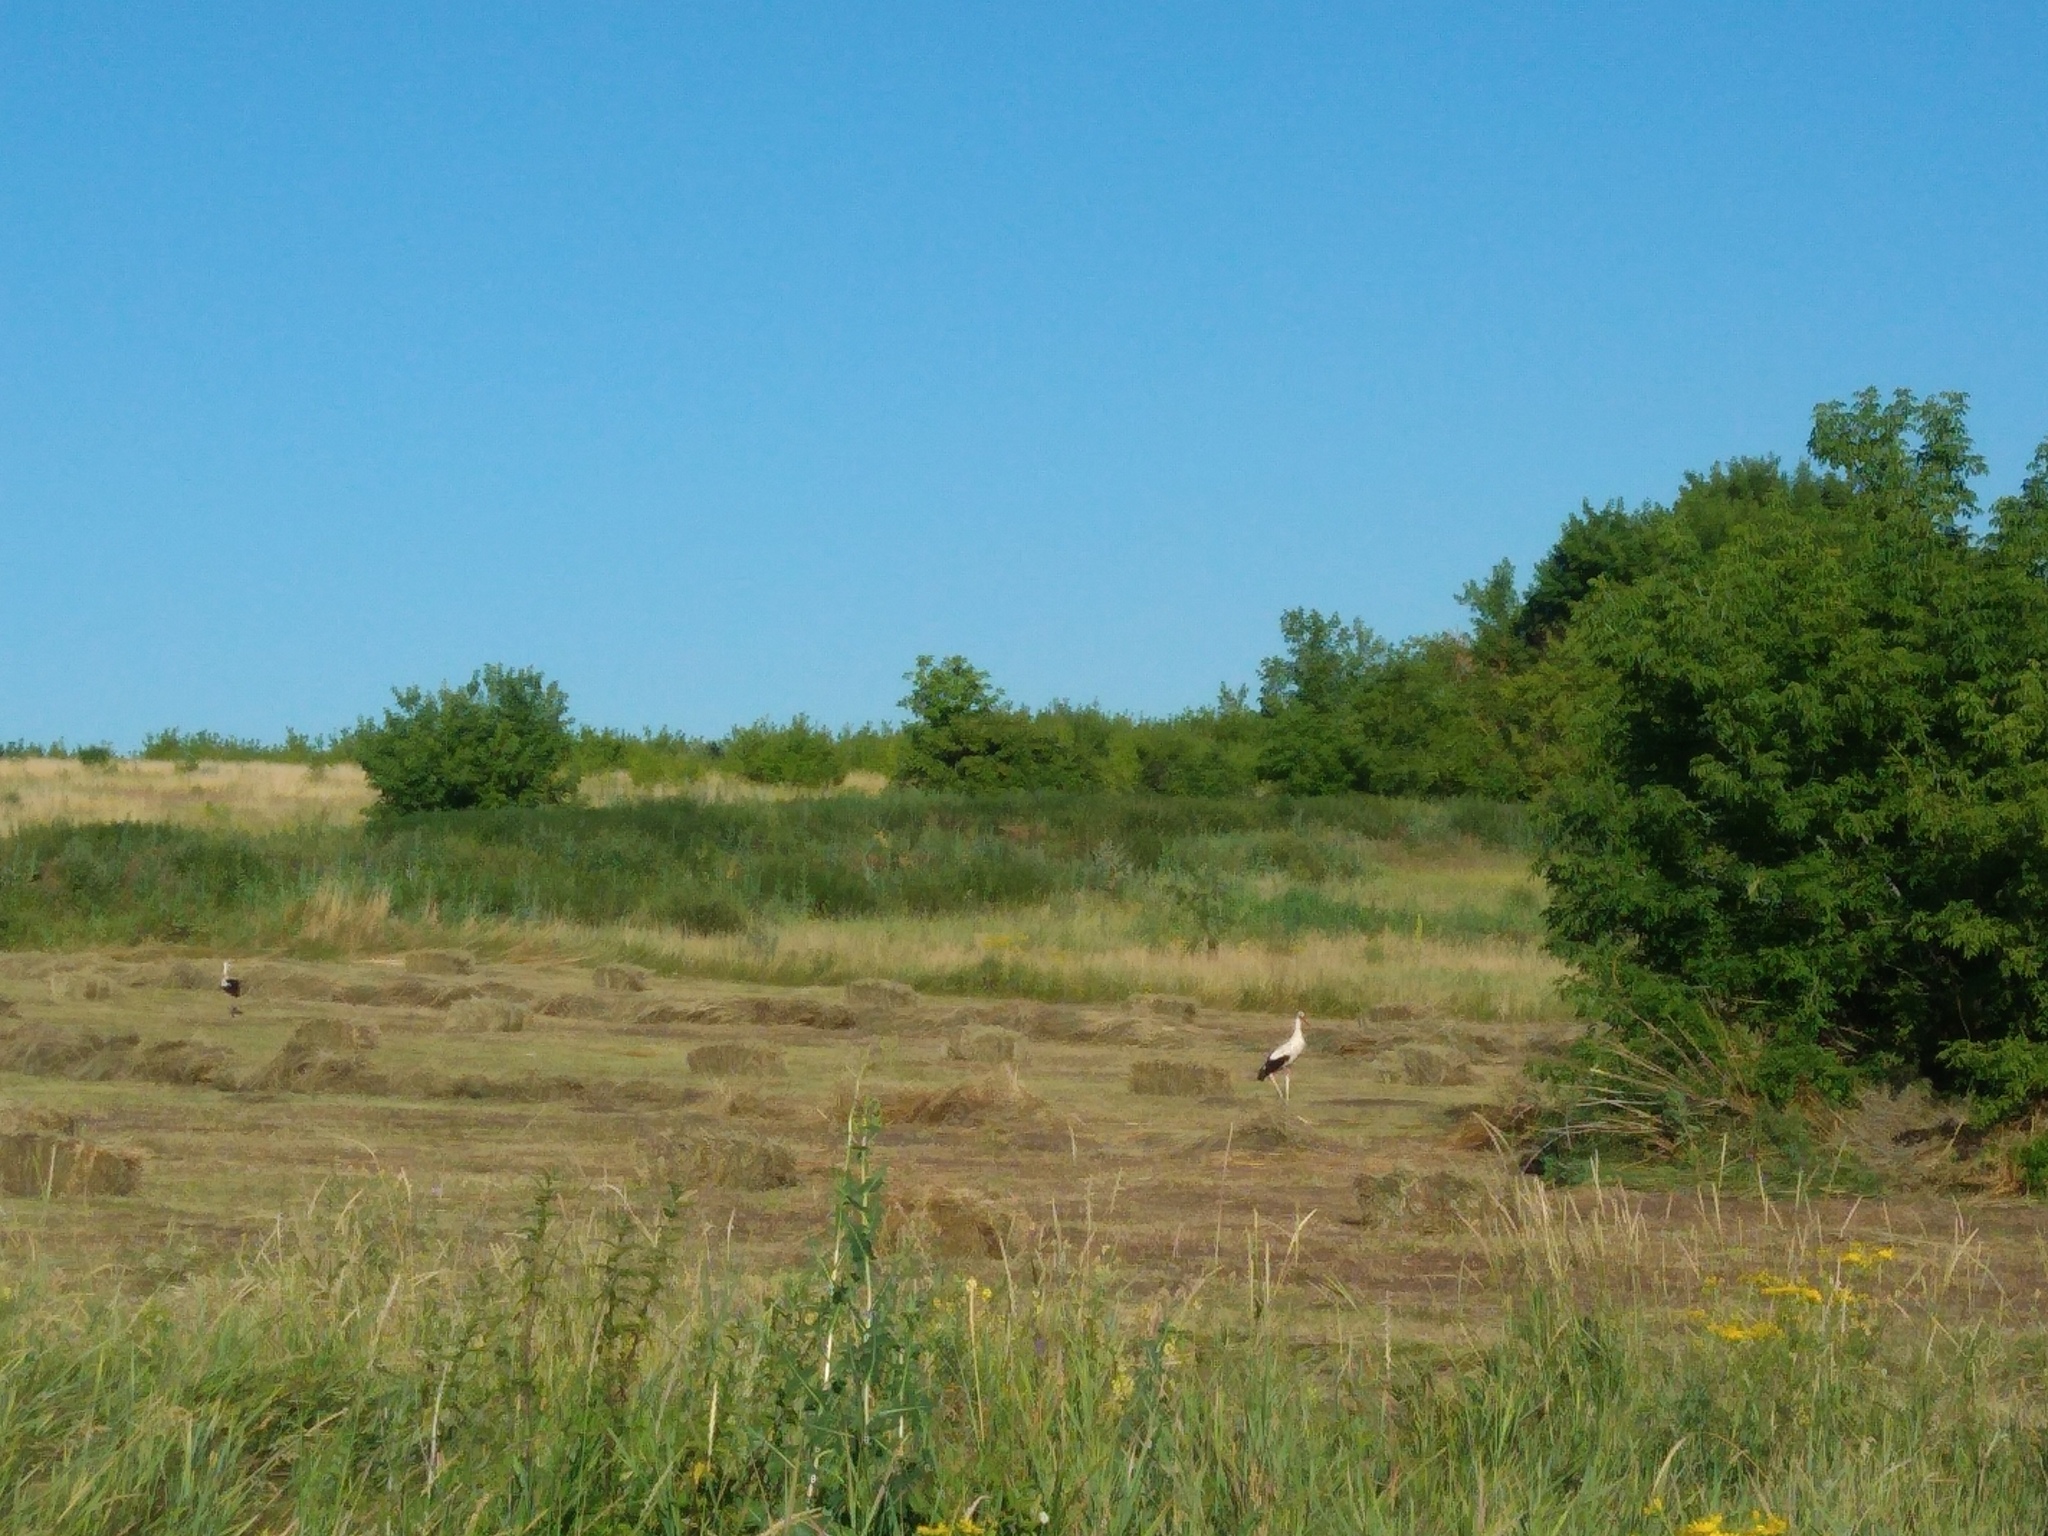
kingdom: Animalia
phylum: Chordata
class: Aves
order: Ciconiiformes
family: Ciconiidae
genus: Ciconia
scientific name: Ciconia ciconia
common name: White stork
